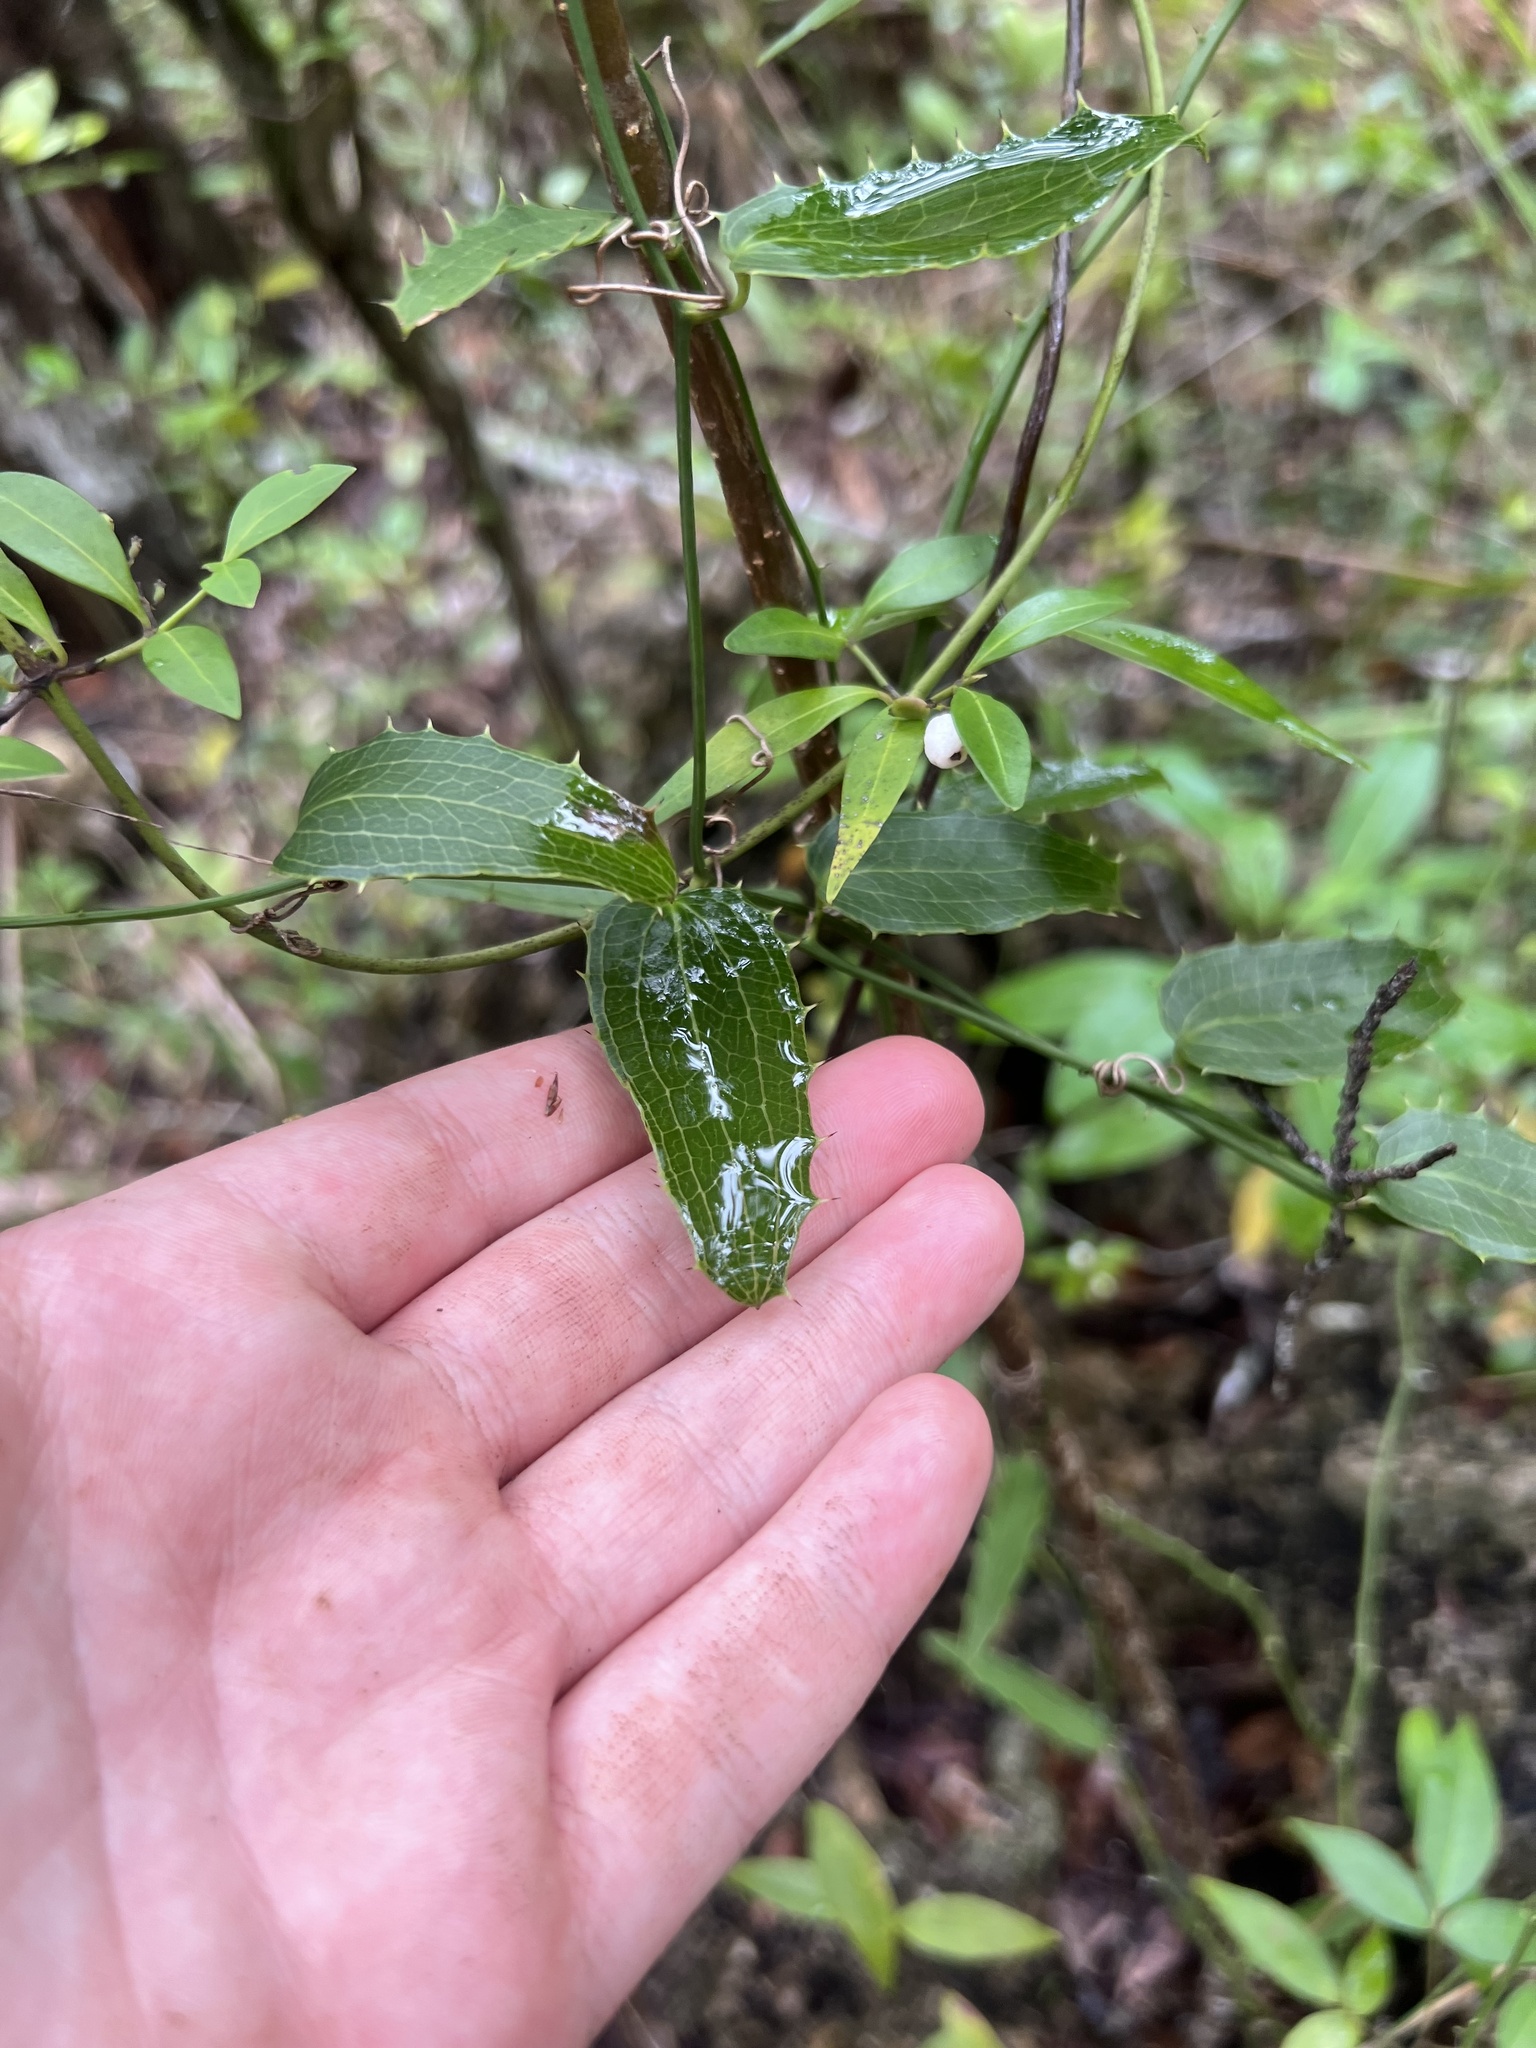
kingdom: Plantae
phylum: Tracheophyta
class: Liliopsida
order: Liliales
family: Smilacaceae
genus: Smilax
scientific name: Smilax havanensis
